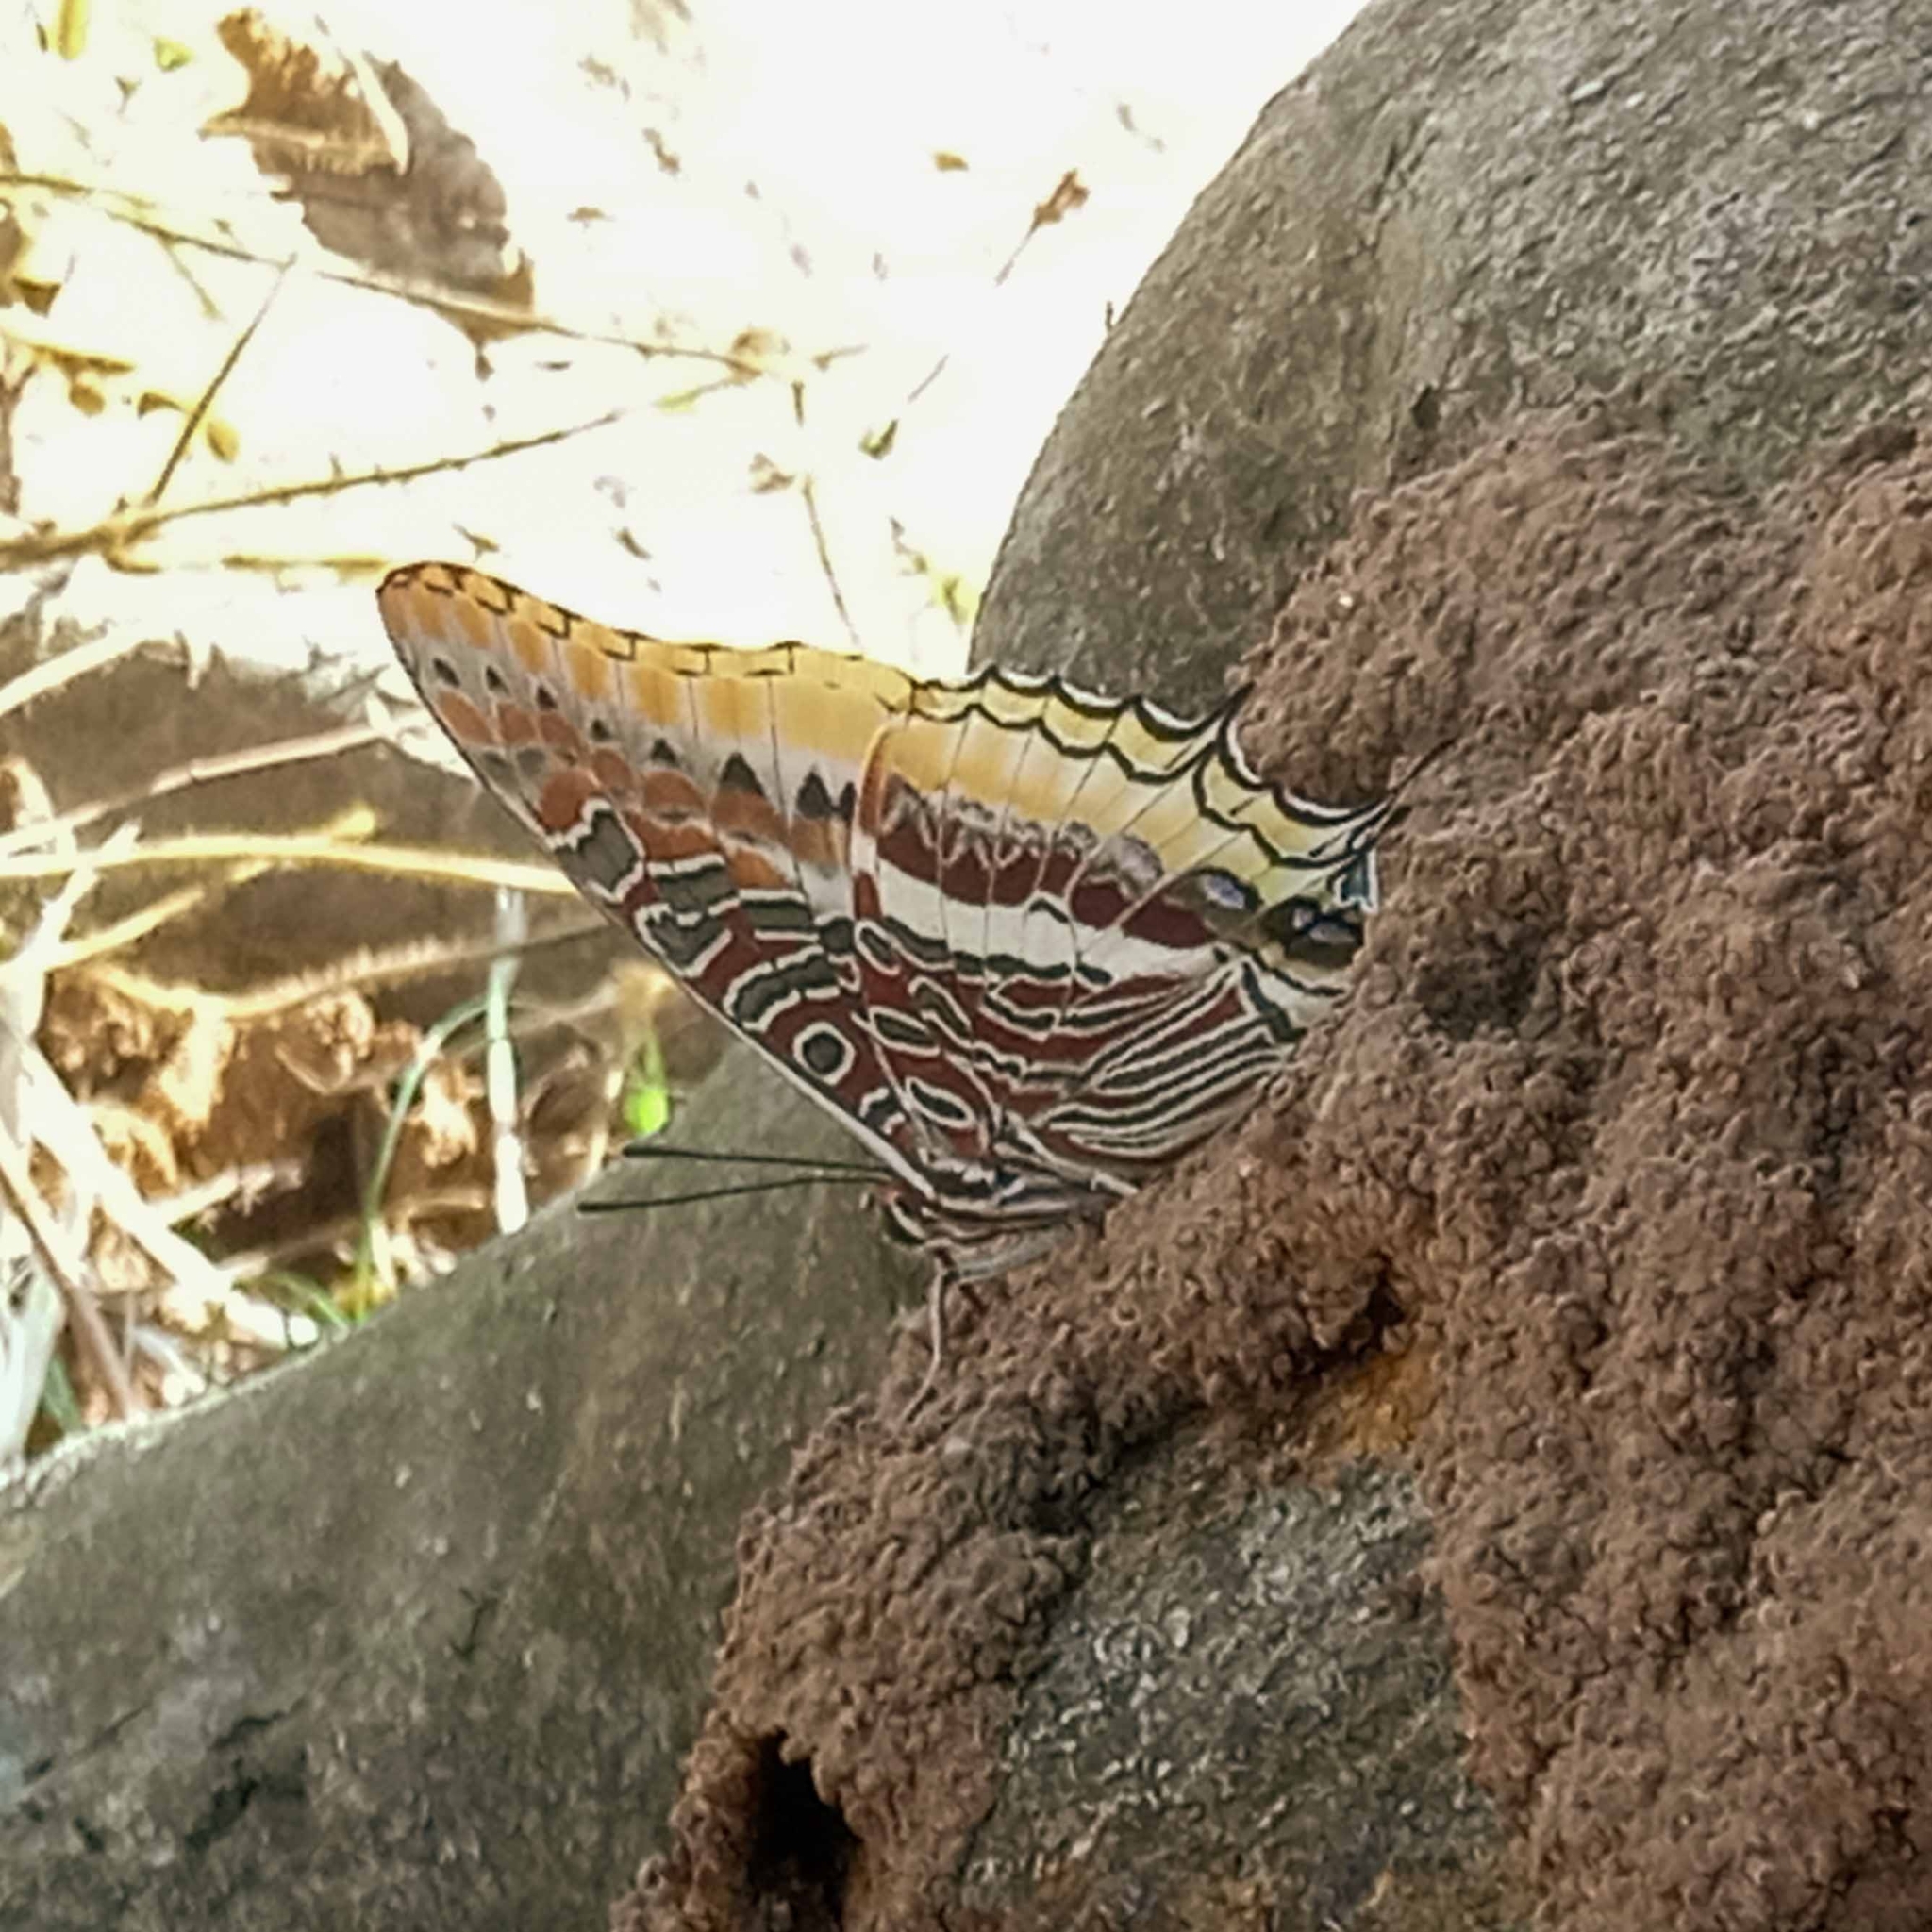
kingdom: Animalia
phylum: Arthropoda
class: Insecta
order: Lepidoptera
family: Nymphalidae
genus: Charaxes
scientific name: Charaxes jasius
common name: Two tailed pasha
